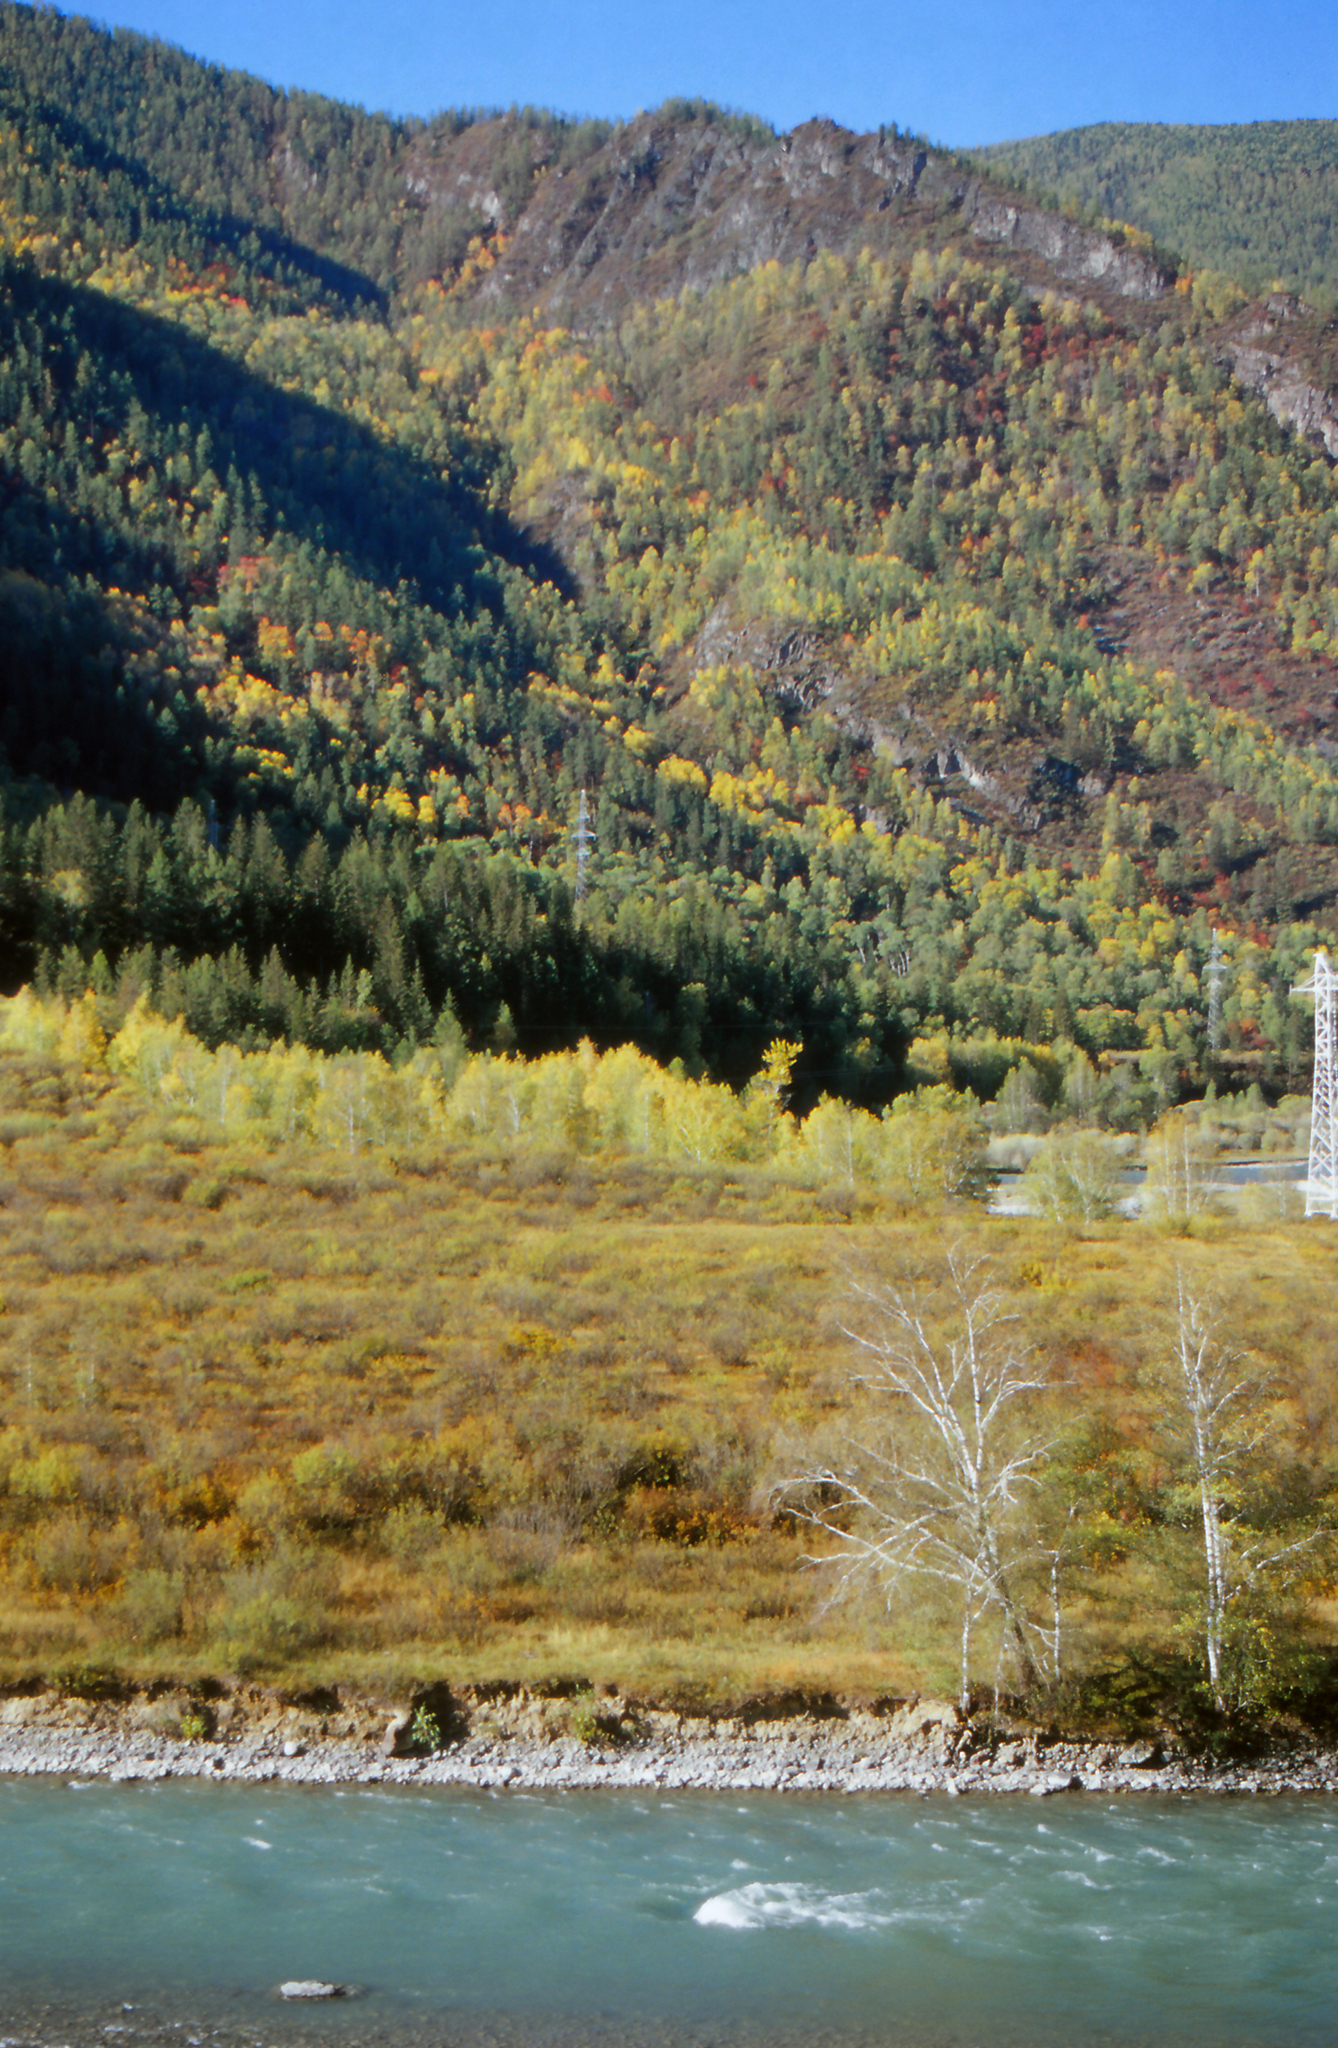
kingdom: Plantae
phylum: Tracheophyta
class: Pinopsida
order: Pinales
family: Pinaceae
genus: Picea
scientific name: Picea obovata
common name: Siberian spruce
